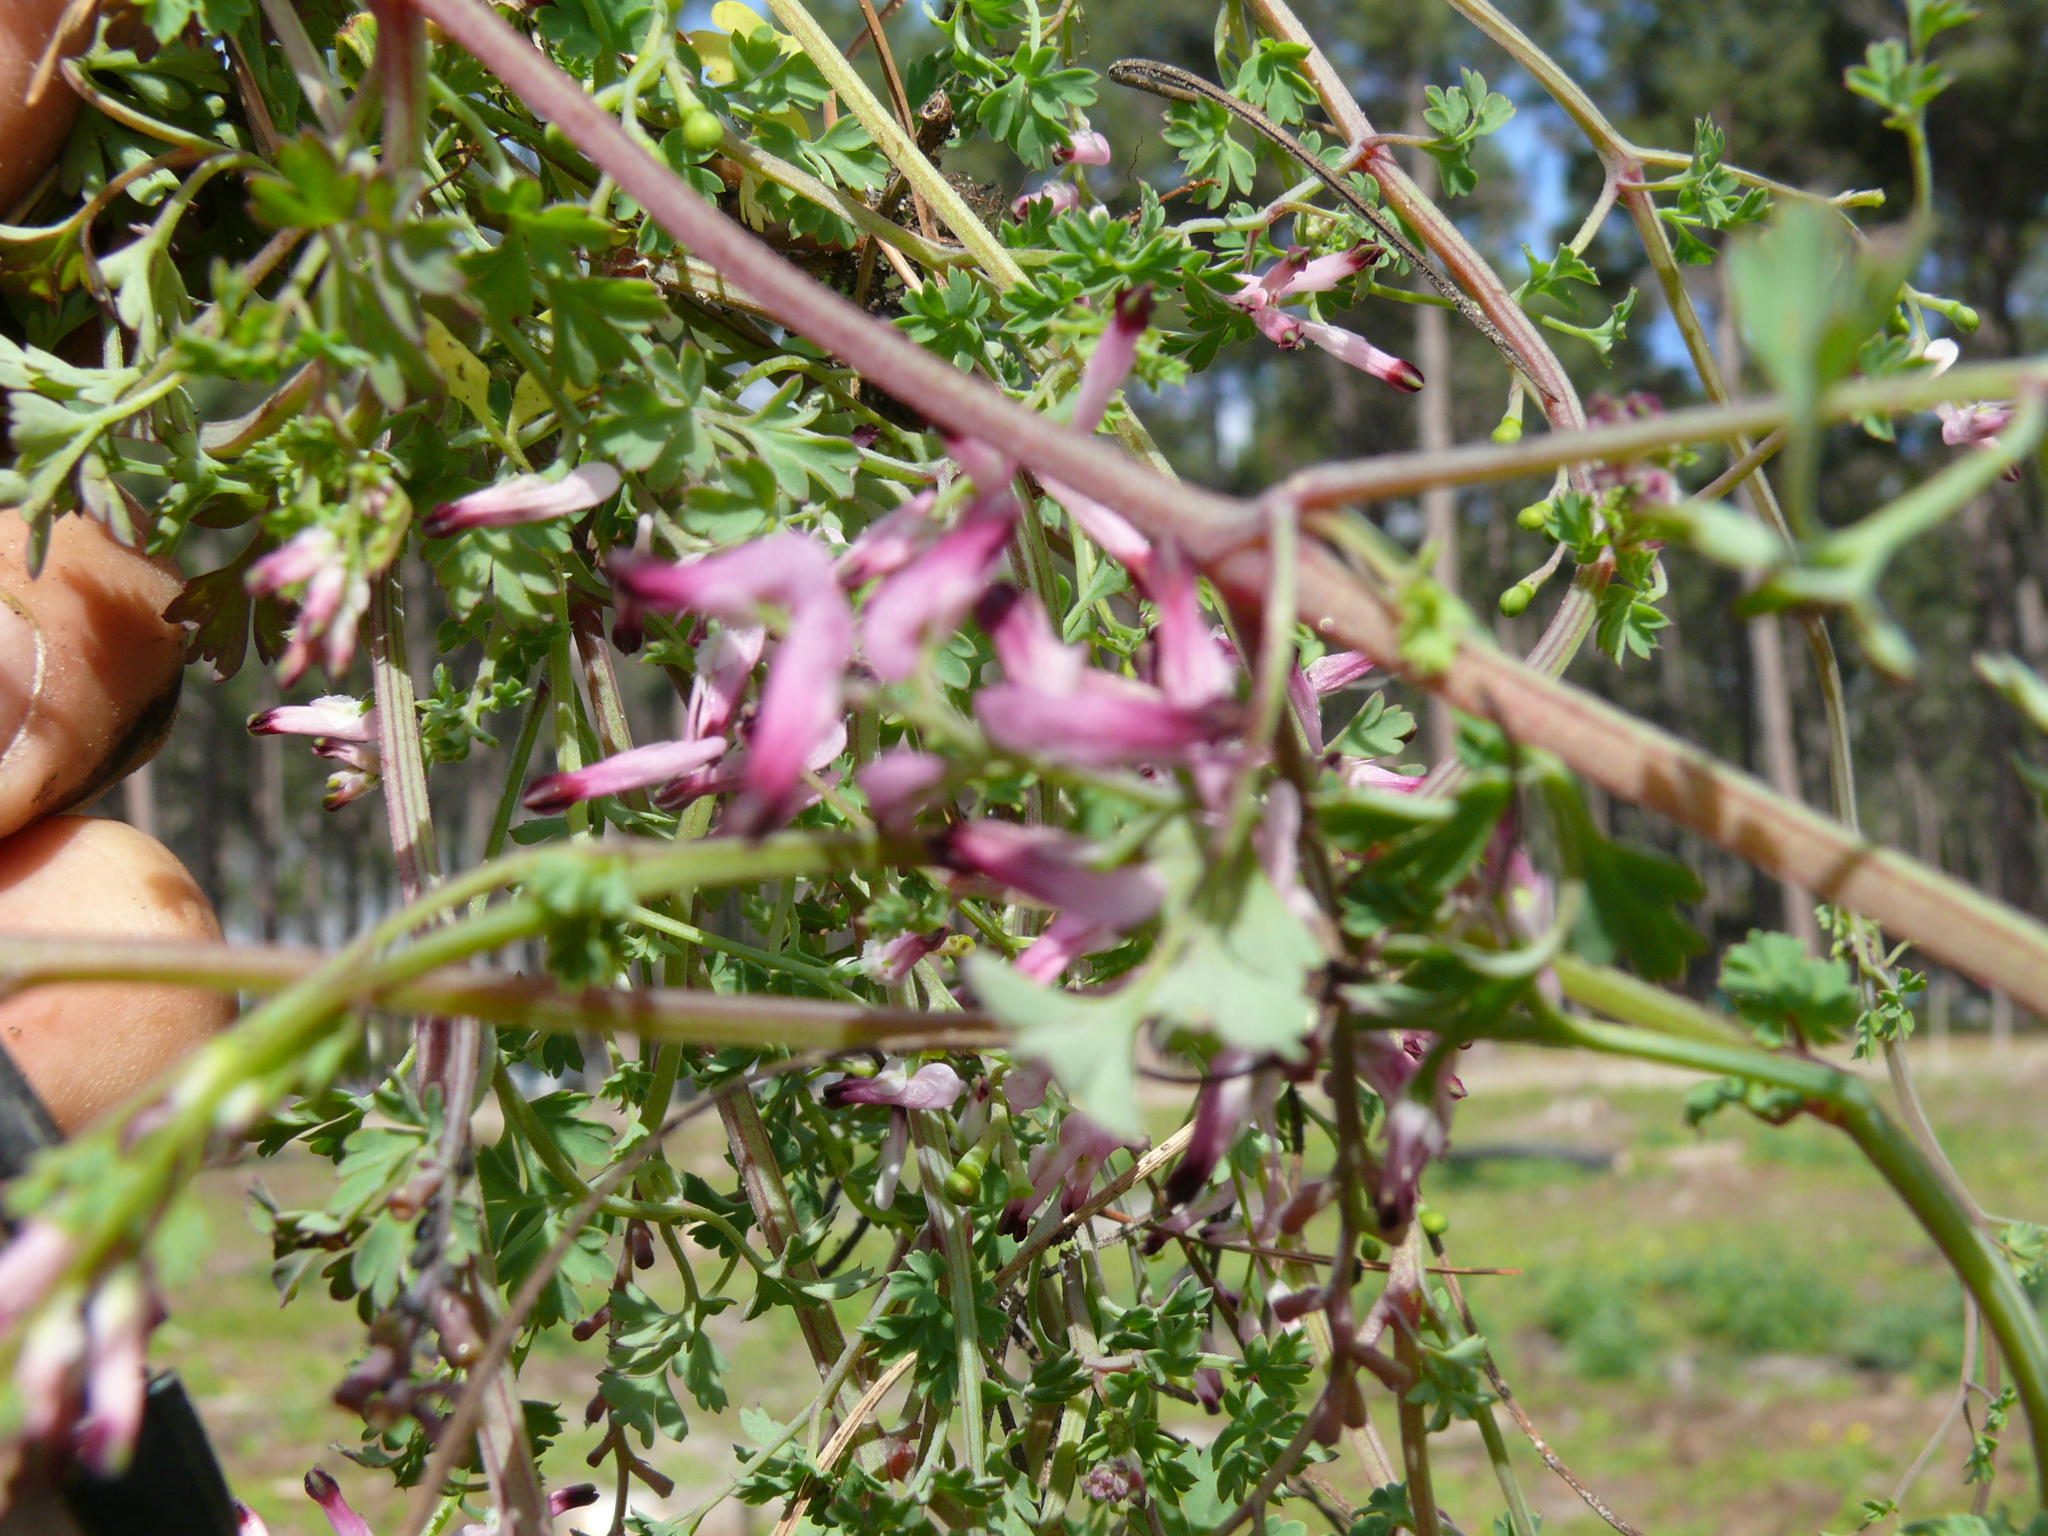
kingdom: Plantae
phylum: Tracheophyta
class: Magnoliopsida
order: Ranunculales
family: Papaveraceae
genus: Fumaria
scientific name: Fumaria muralis
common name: Common ramping-fumitory
